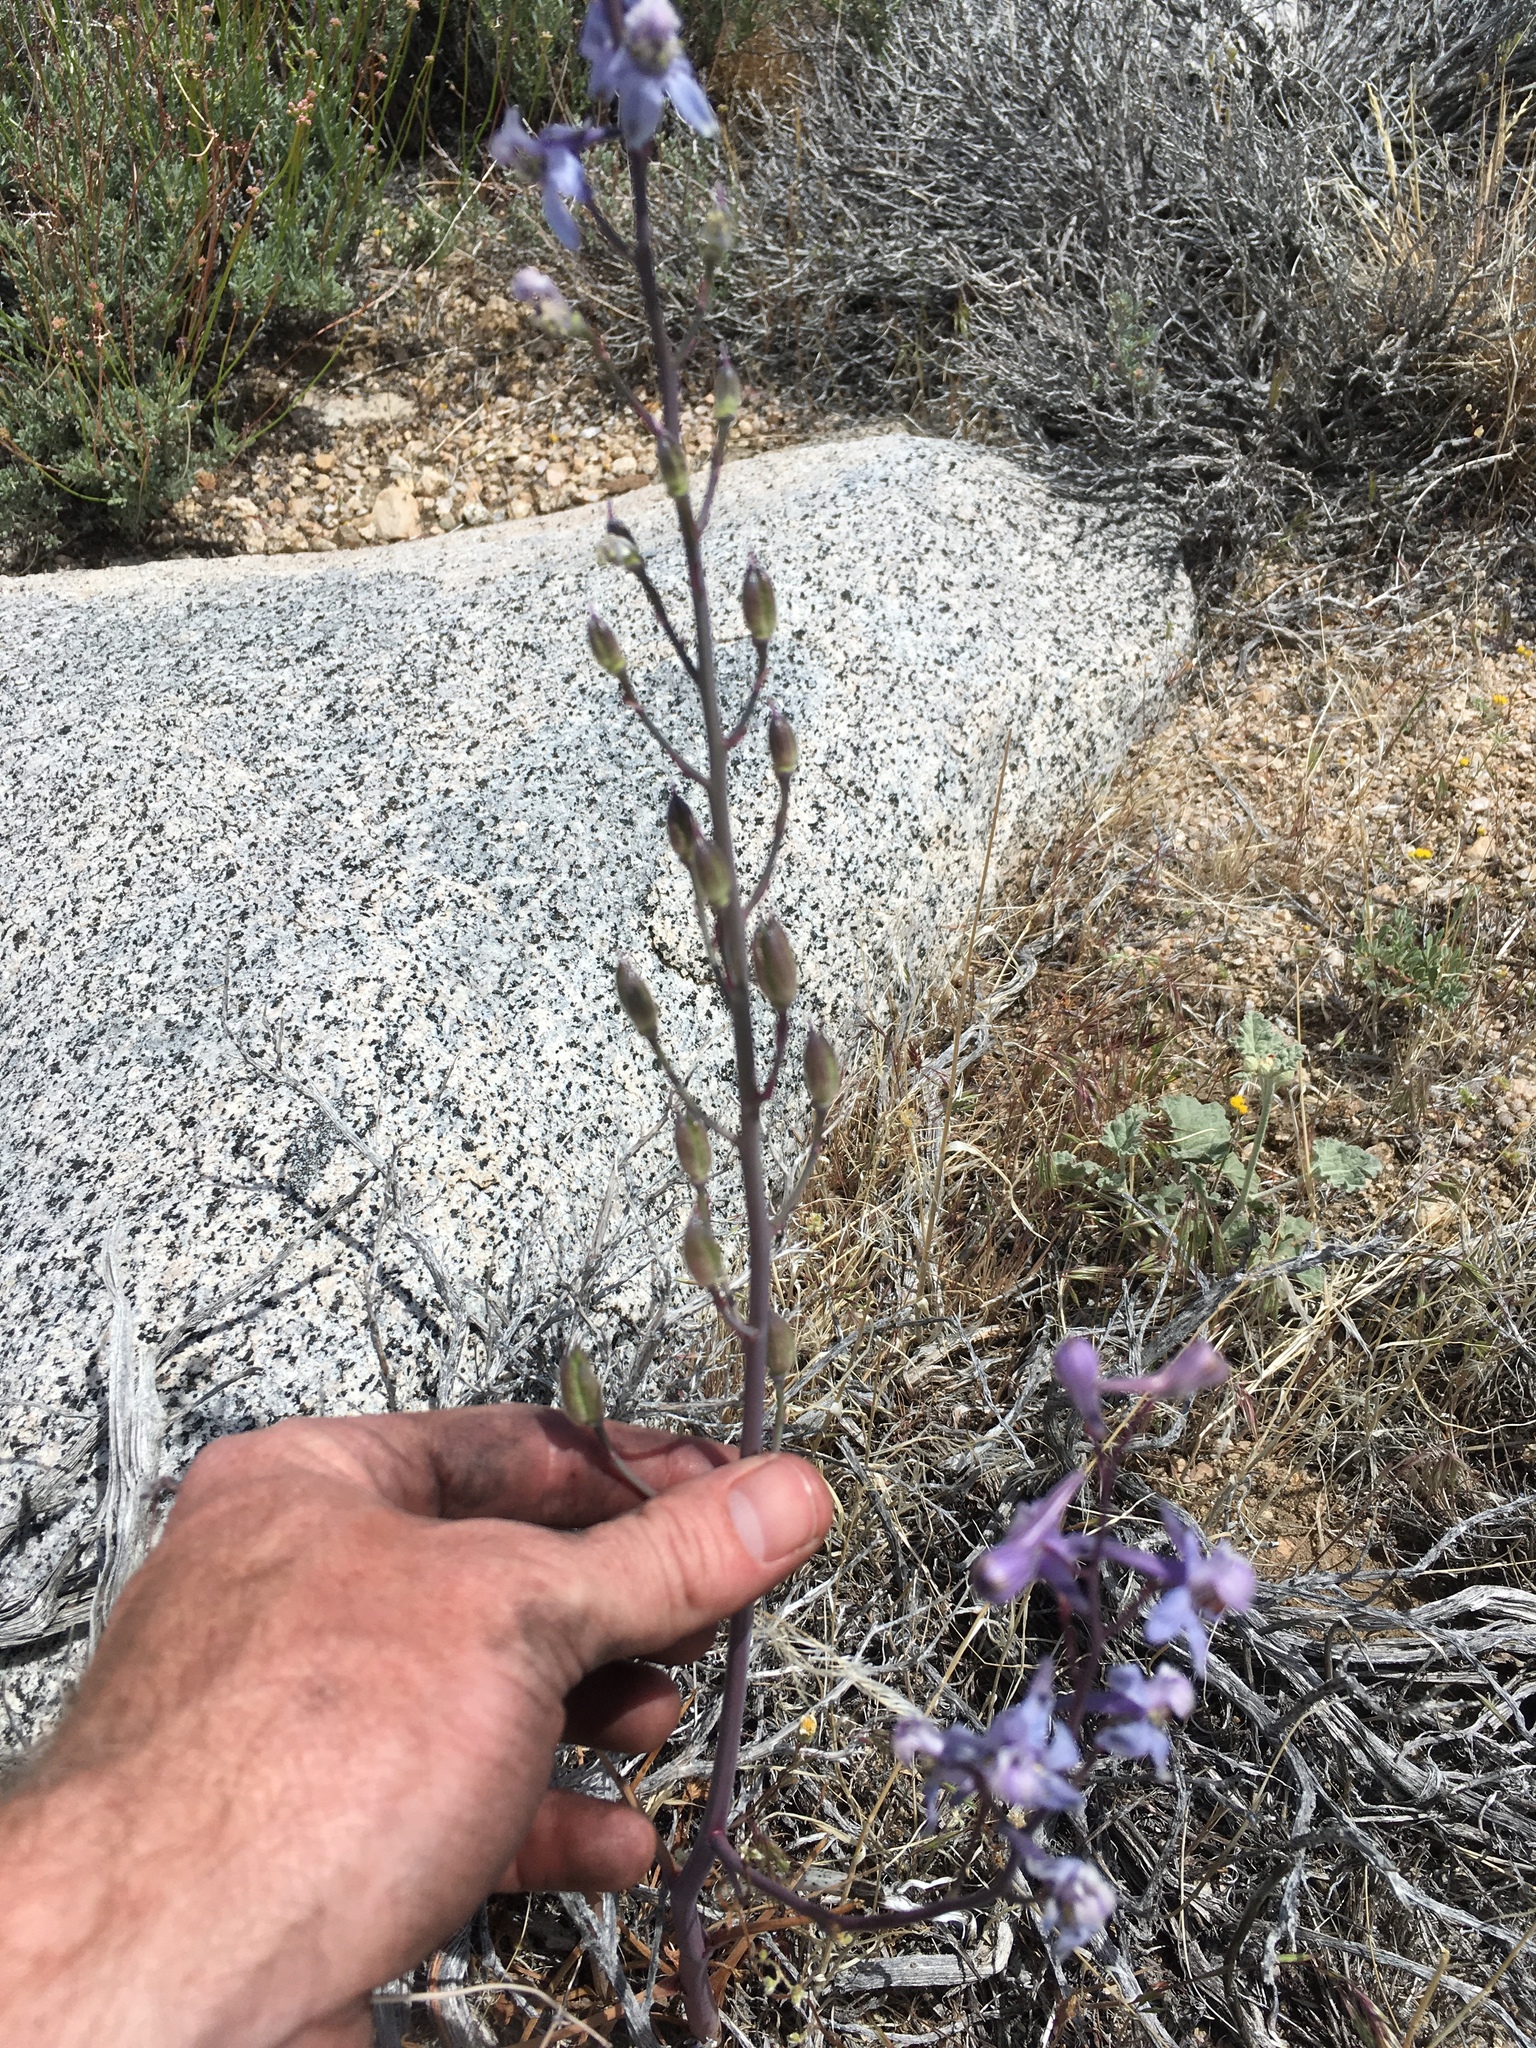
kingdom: Plantae
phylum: Tracheophyta
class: Magnoliopsida
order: Ranunculales
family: Ranunculaceae
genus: Delphinium
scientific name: Delphinium parishii
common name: Apache larkspur
